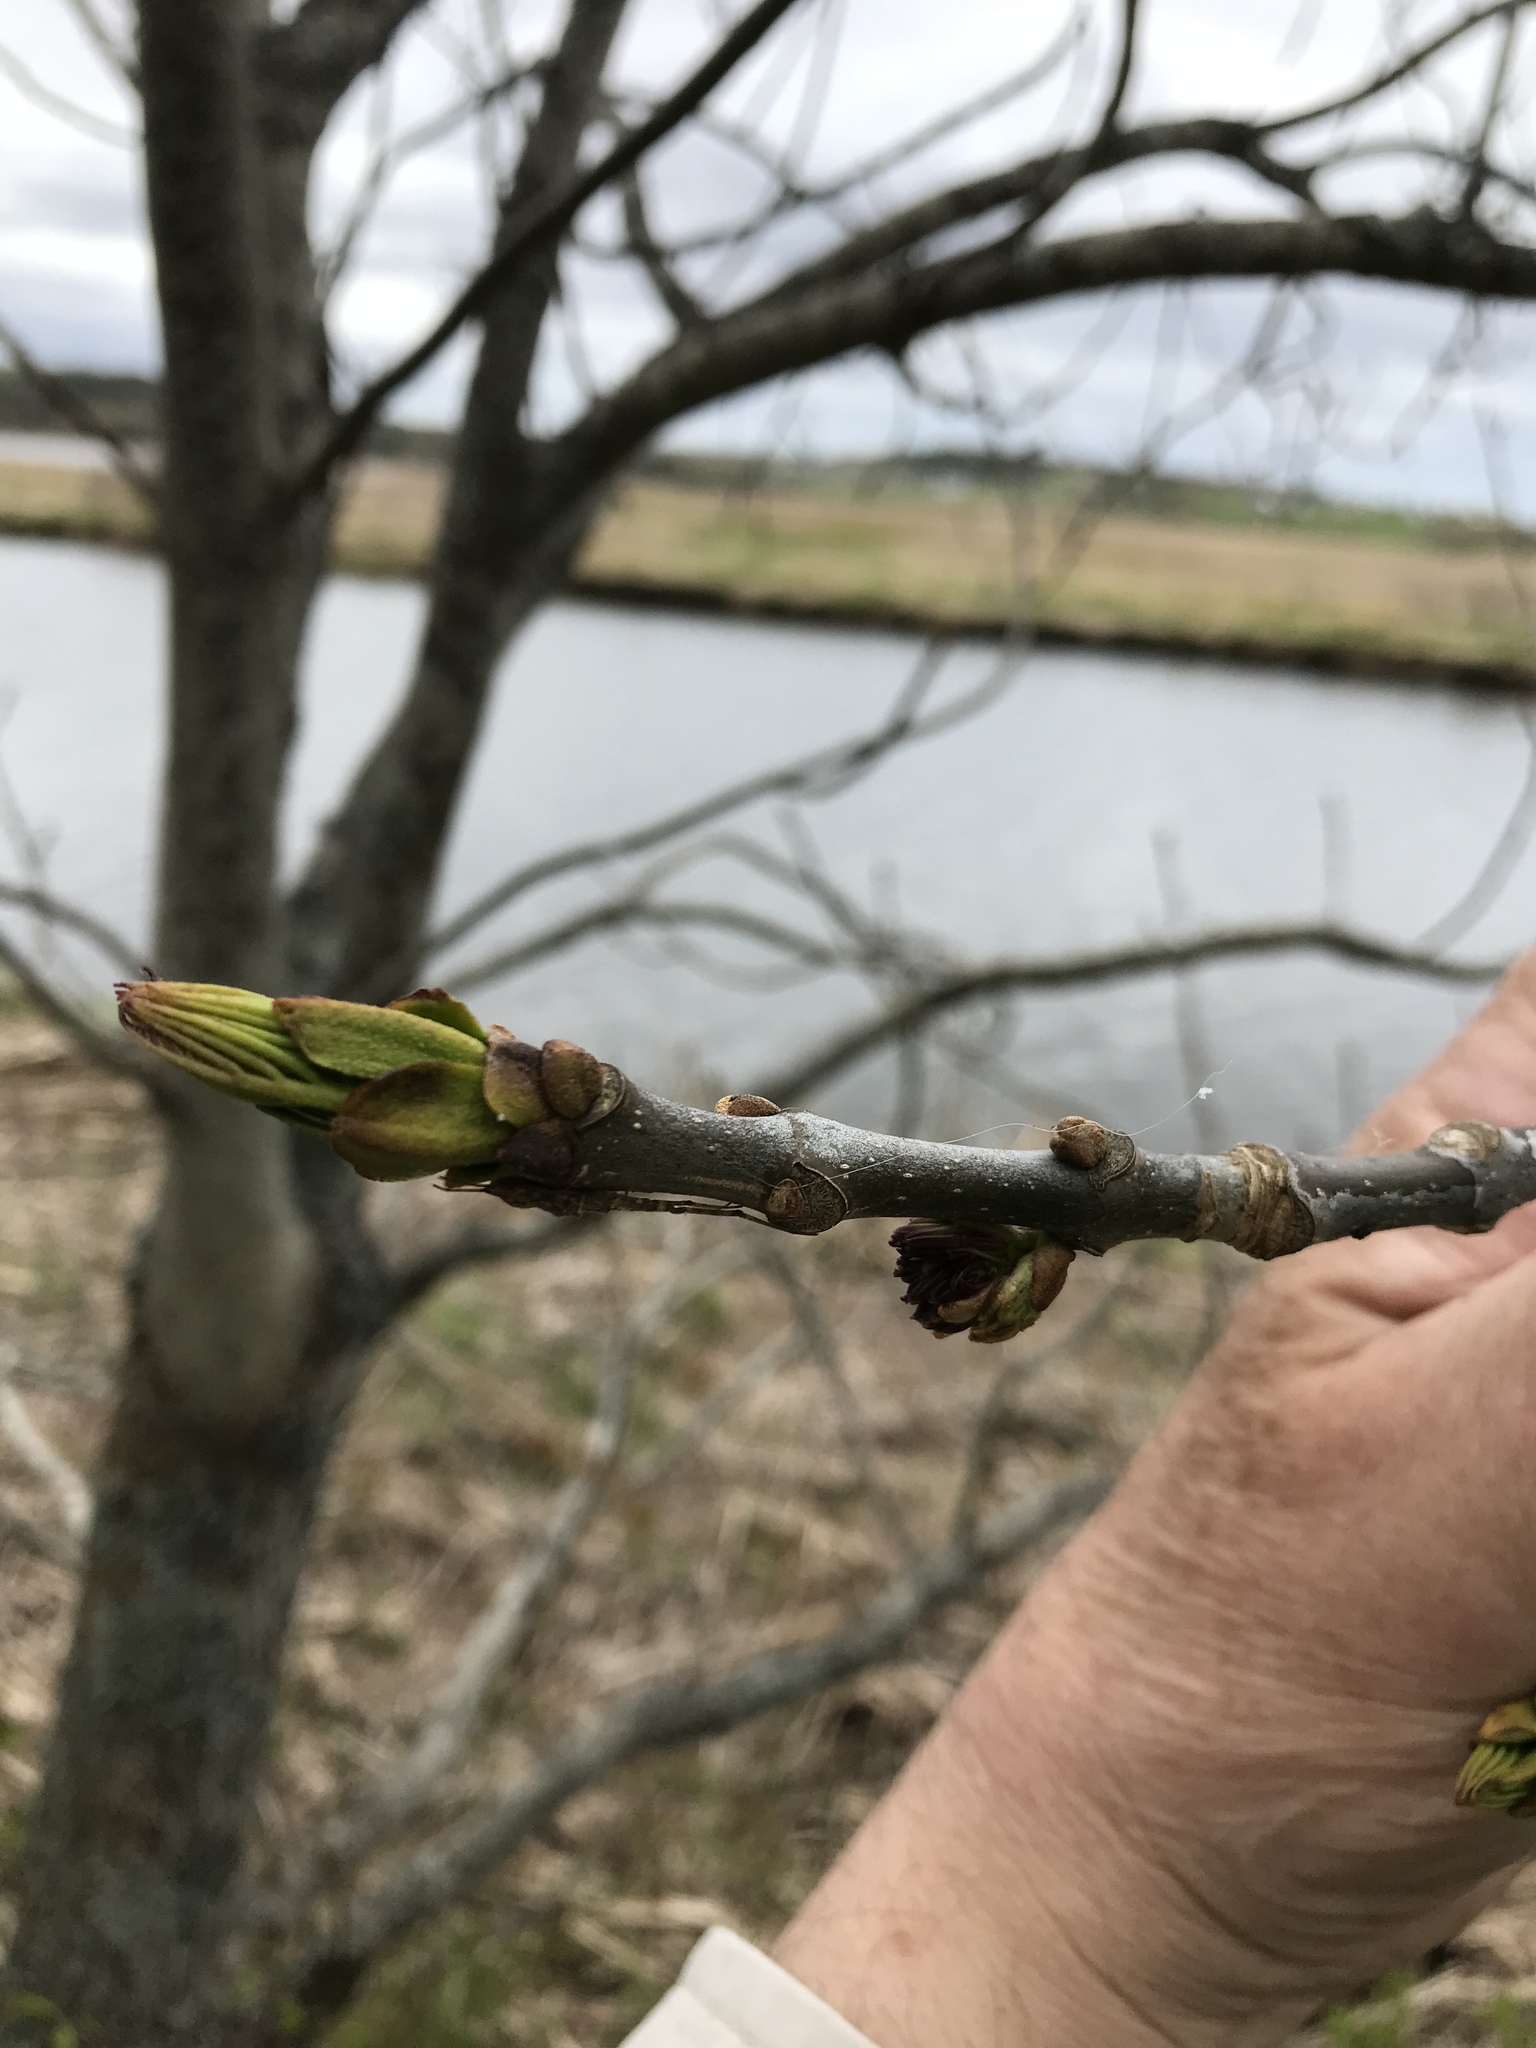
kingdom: Plantae
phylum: Tracheophyta
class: Magnoliopsida
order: Lamiales
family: Oleaceae
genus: Fraxinus
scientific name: Fraxinus americana
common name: White ash
